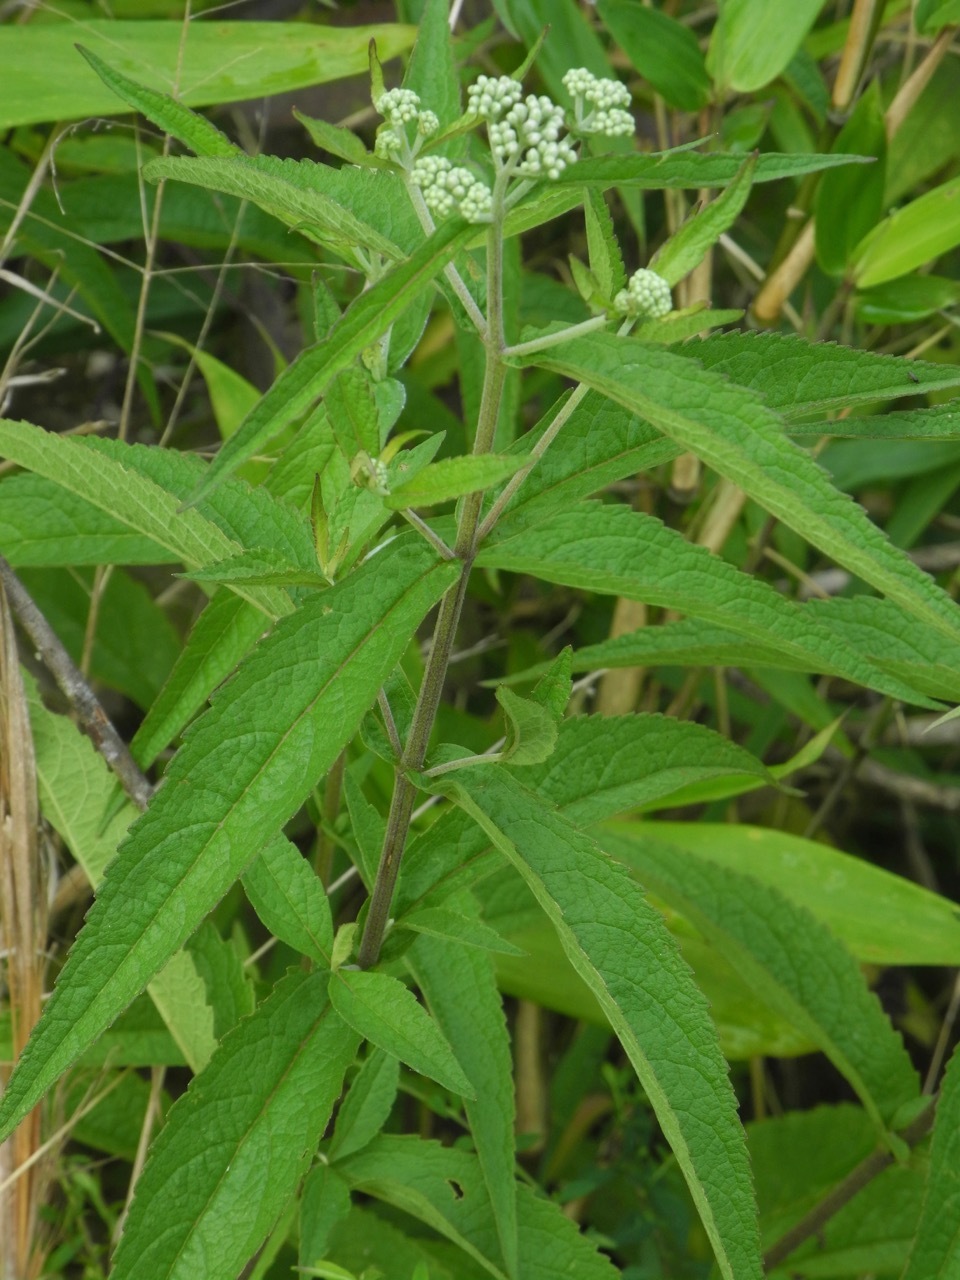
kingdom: Plantae
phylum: Tracheophyta
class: Magnoliopsida
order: Asterales
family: Asteraceae
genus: Eupatorium
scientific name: Eupatorium truncatum
